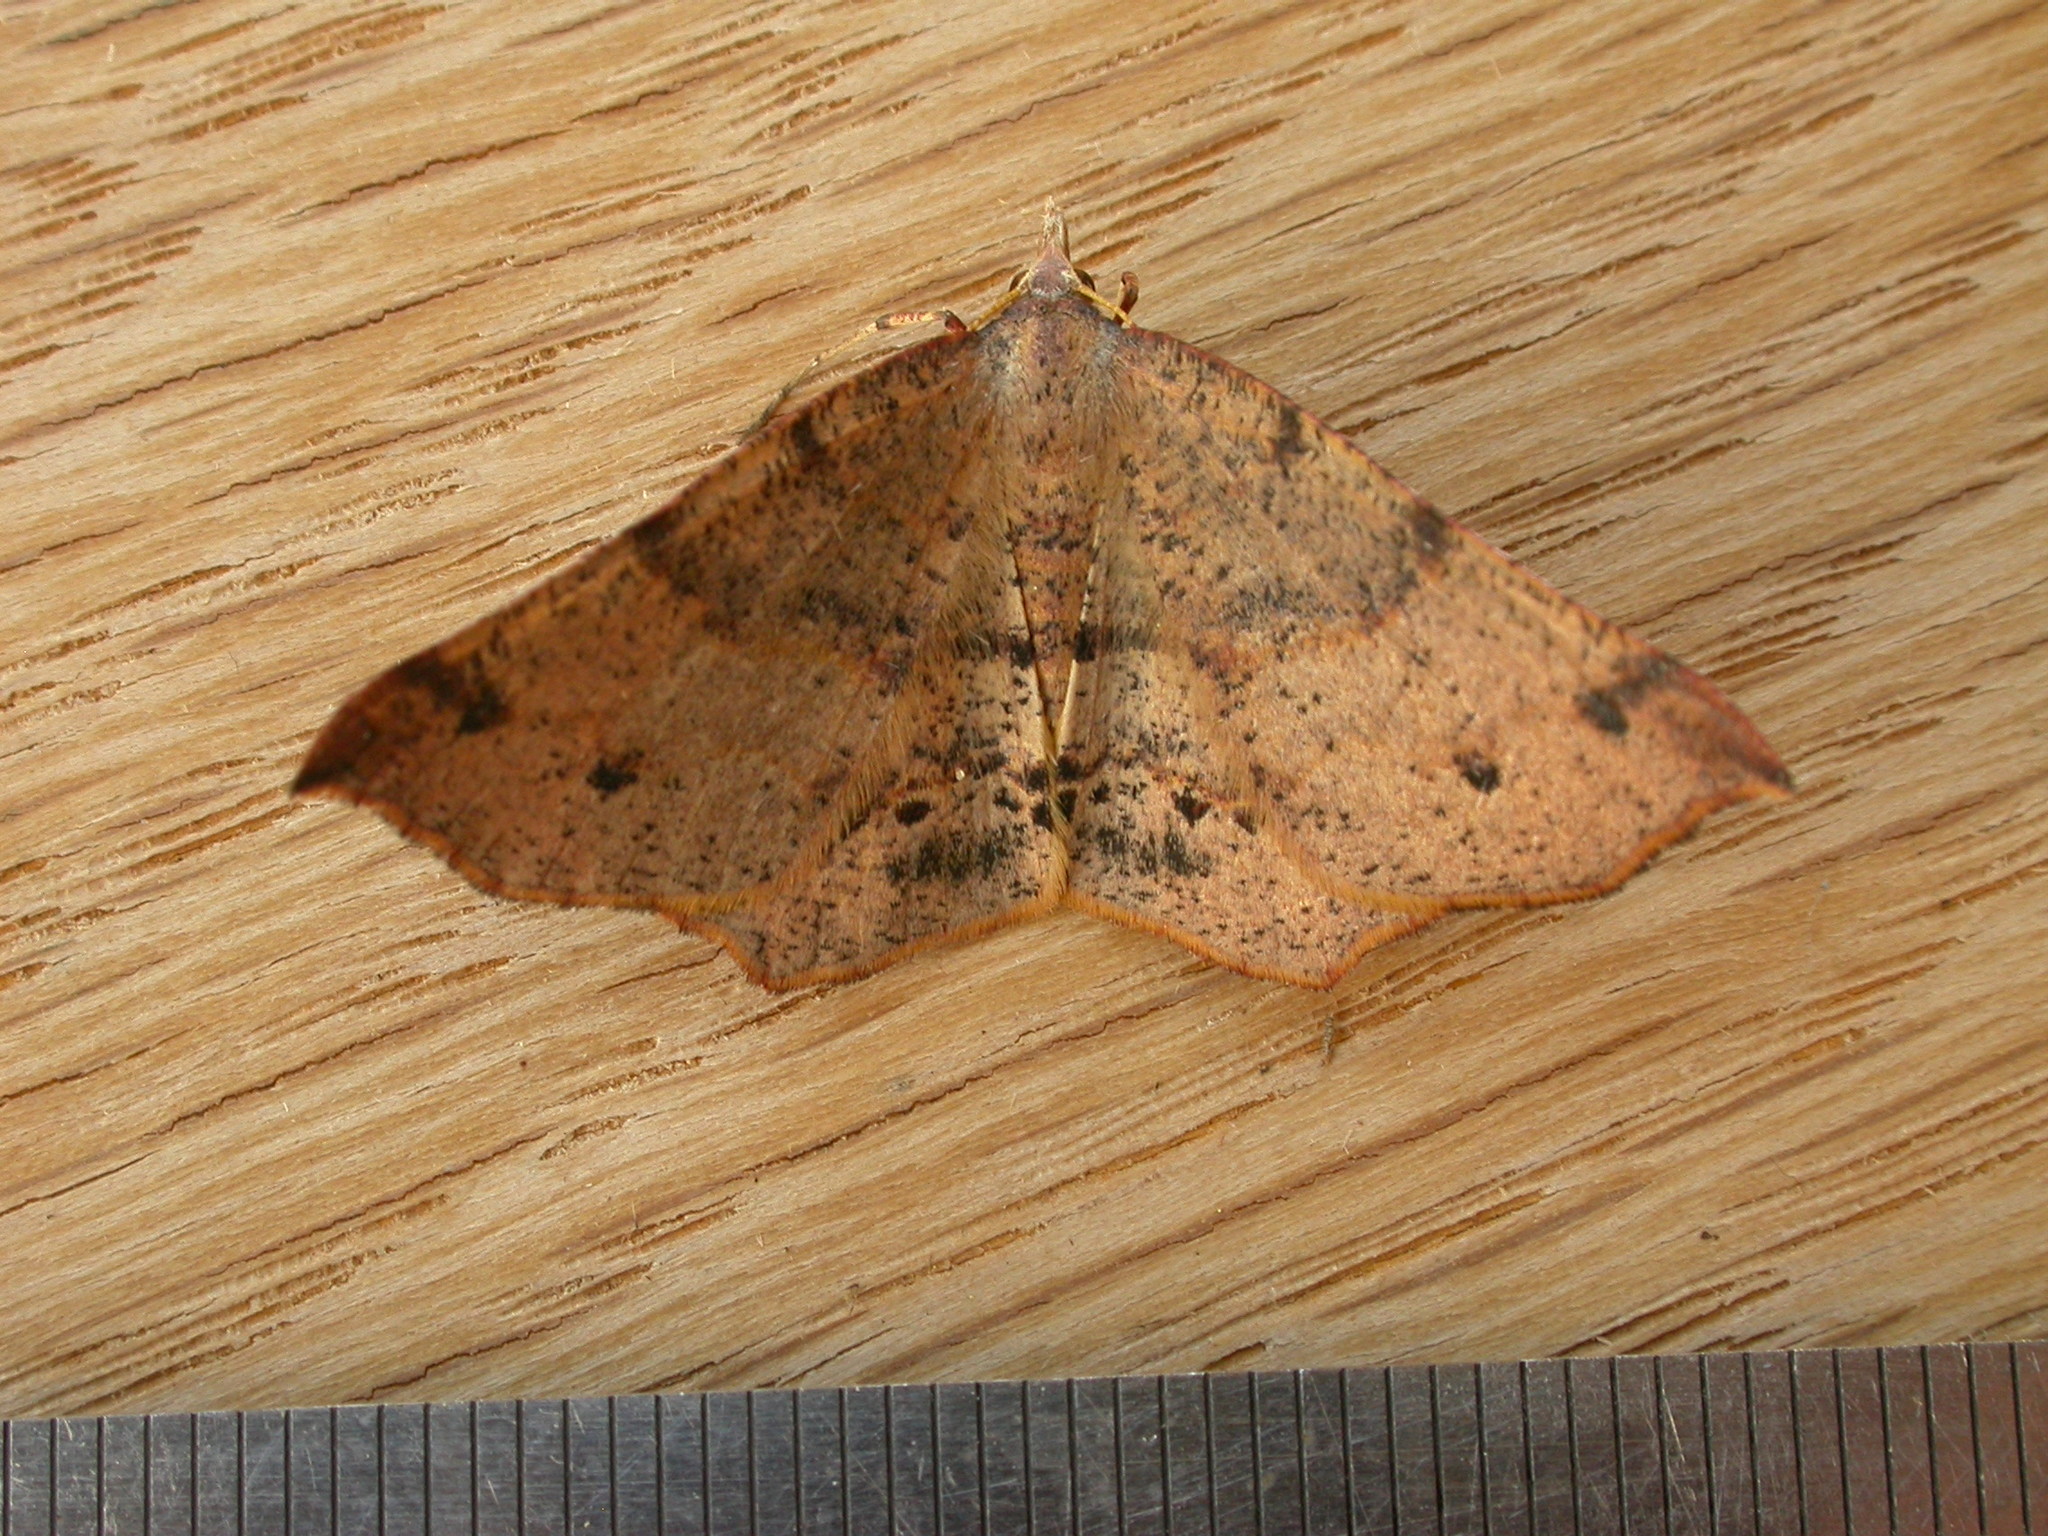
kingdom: Animalia
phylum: Arthropoda
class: Insecta
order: Lepidoptera
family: Geometridae
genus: Rhinodia
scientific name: Rhinodia rostraria
